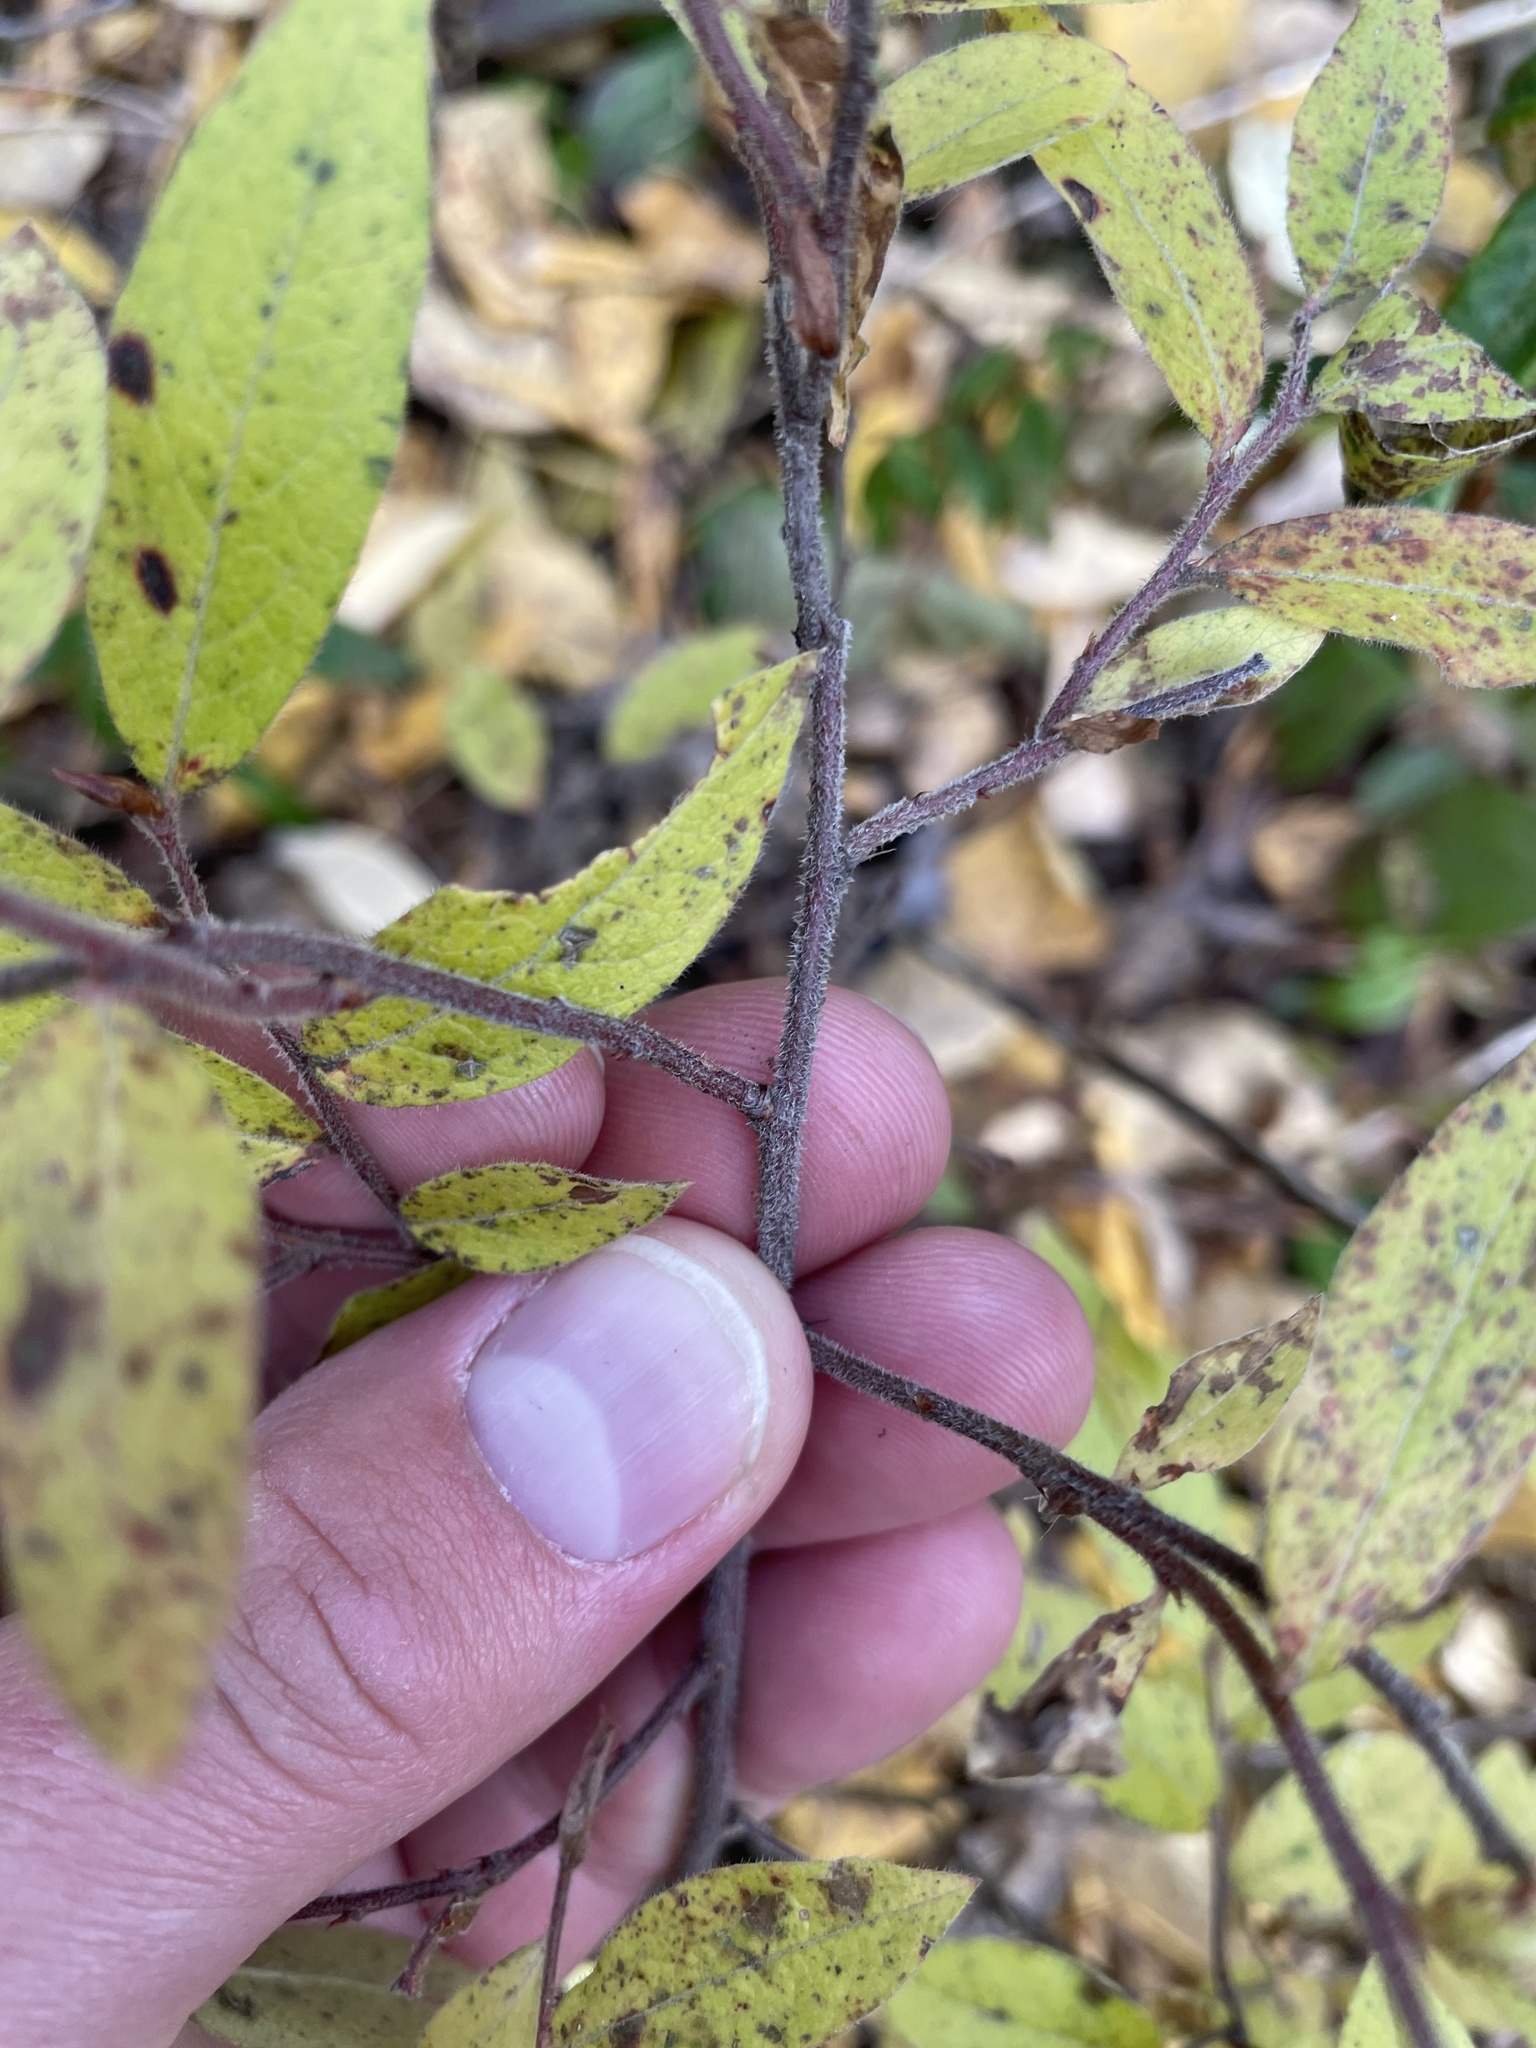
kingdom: Plantae
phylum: Tracheophyta
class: Magnoliopsida
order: Ericales
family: Ericaceae
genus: Vaccinium
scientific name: Vaccinium myrtilloides
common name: Canada blueberry
